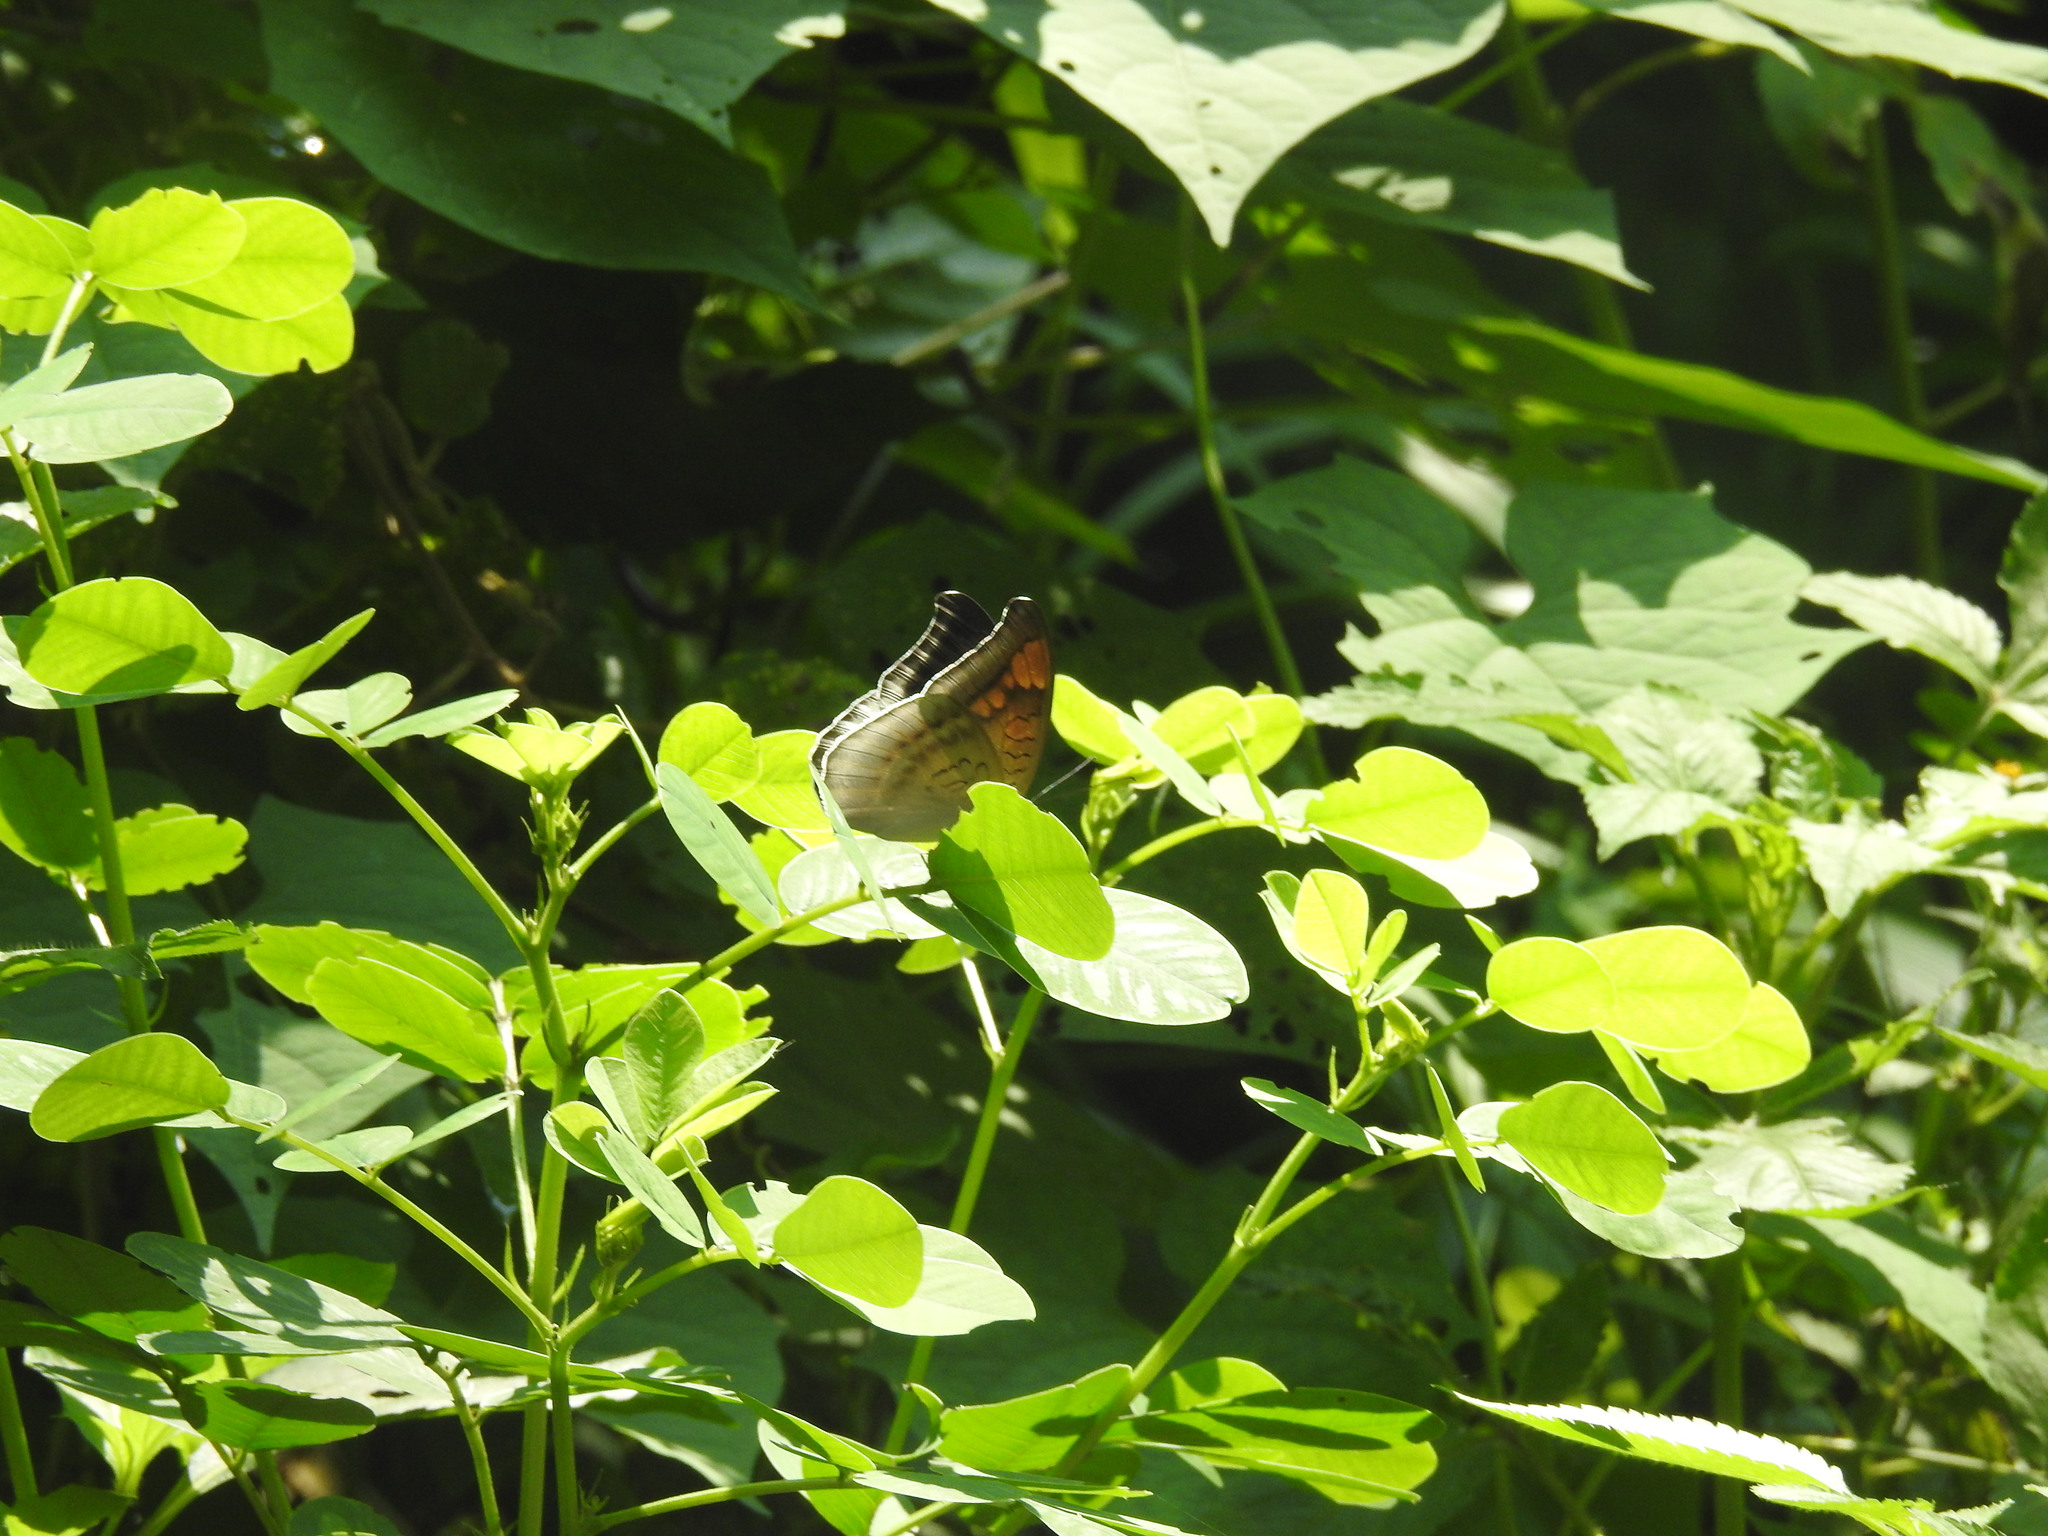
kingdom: Animalia
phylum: Arthropoda
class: Insecta
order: Lepidoptera
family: Nymphalidae
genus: Tanaecia
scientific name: Tanaecia lepidea
